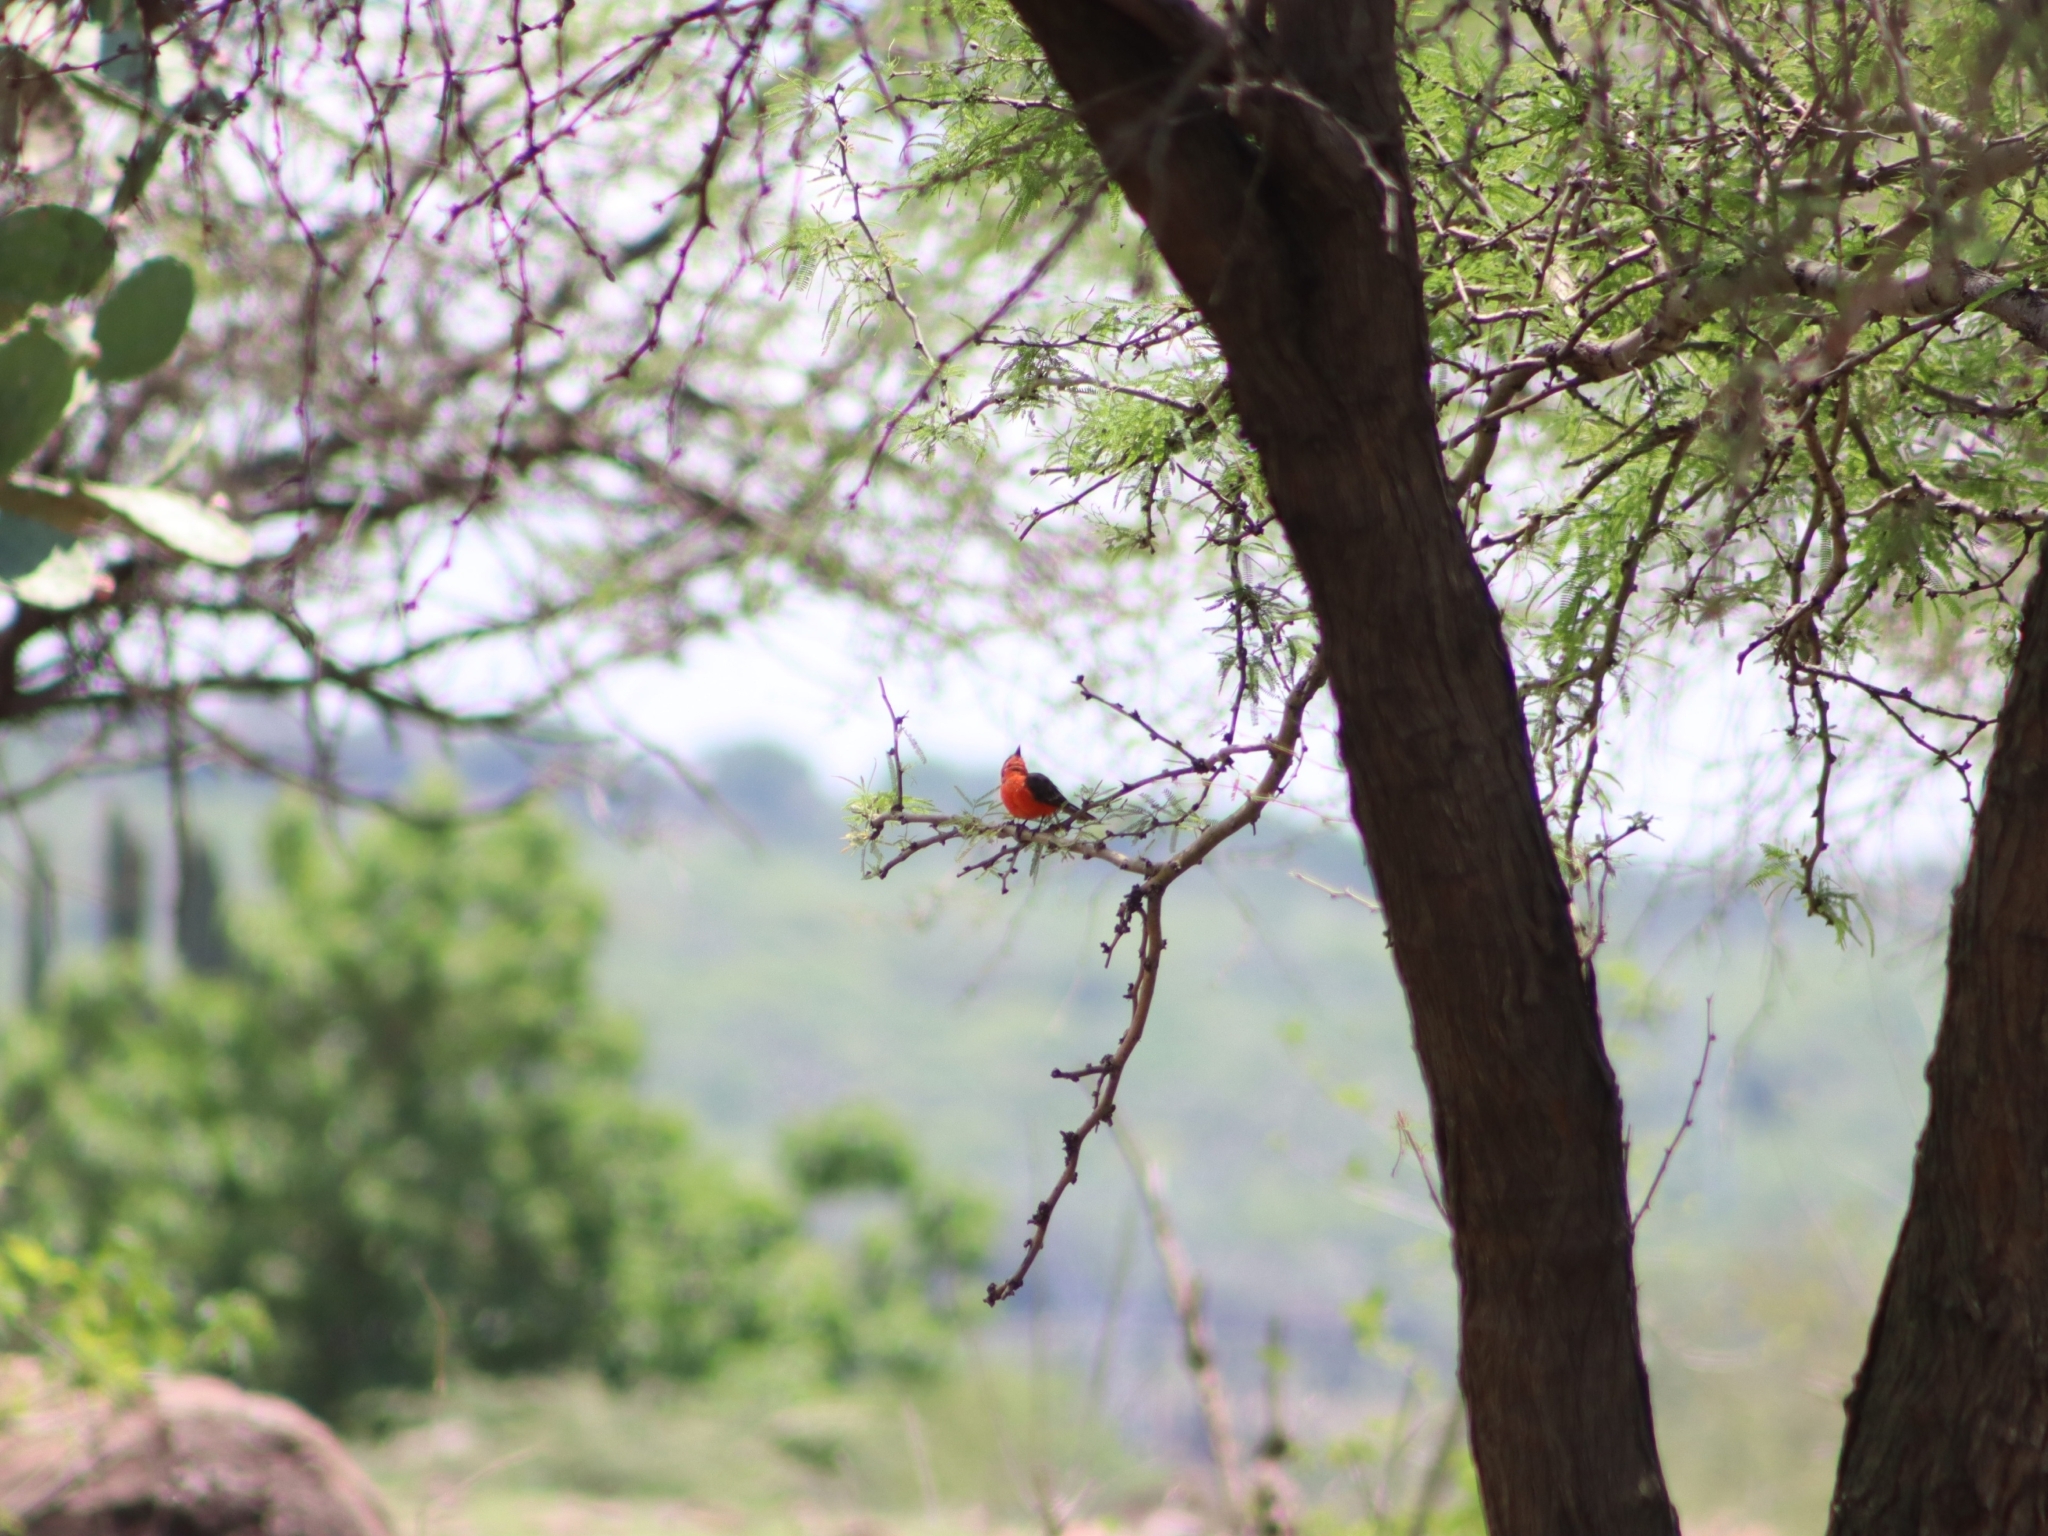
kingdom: Animalia
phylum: Chordata
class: Aves
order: Passeriformes
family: Tyrannidae
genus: Pyrocephalus
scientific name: Pyrocephalus rubinus
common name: Vermilion flycatcher
